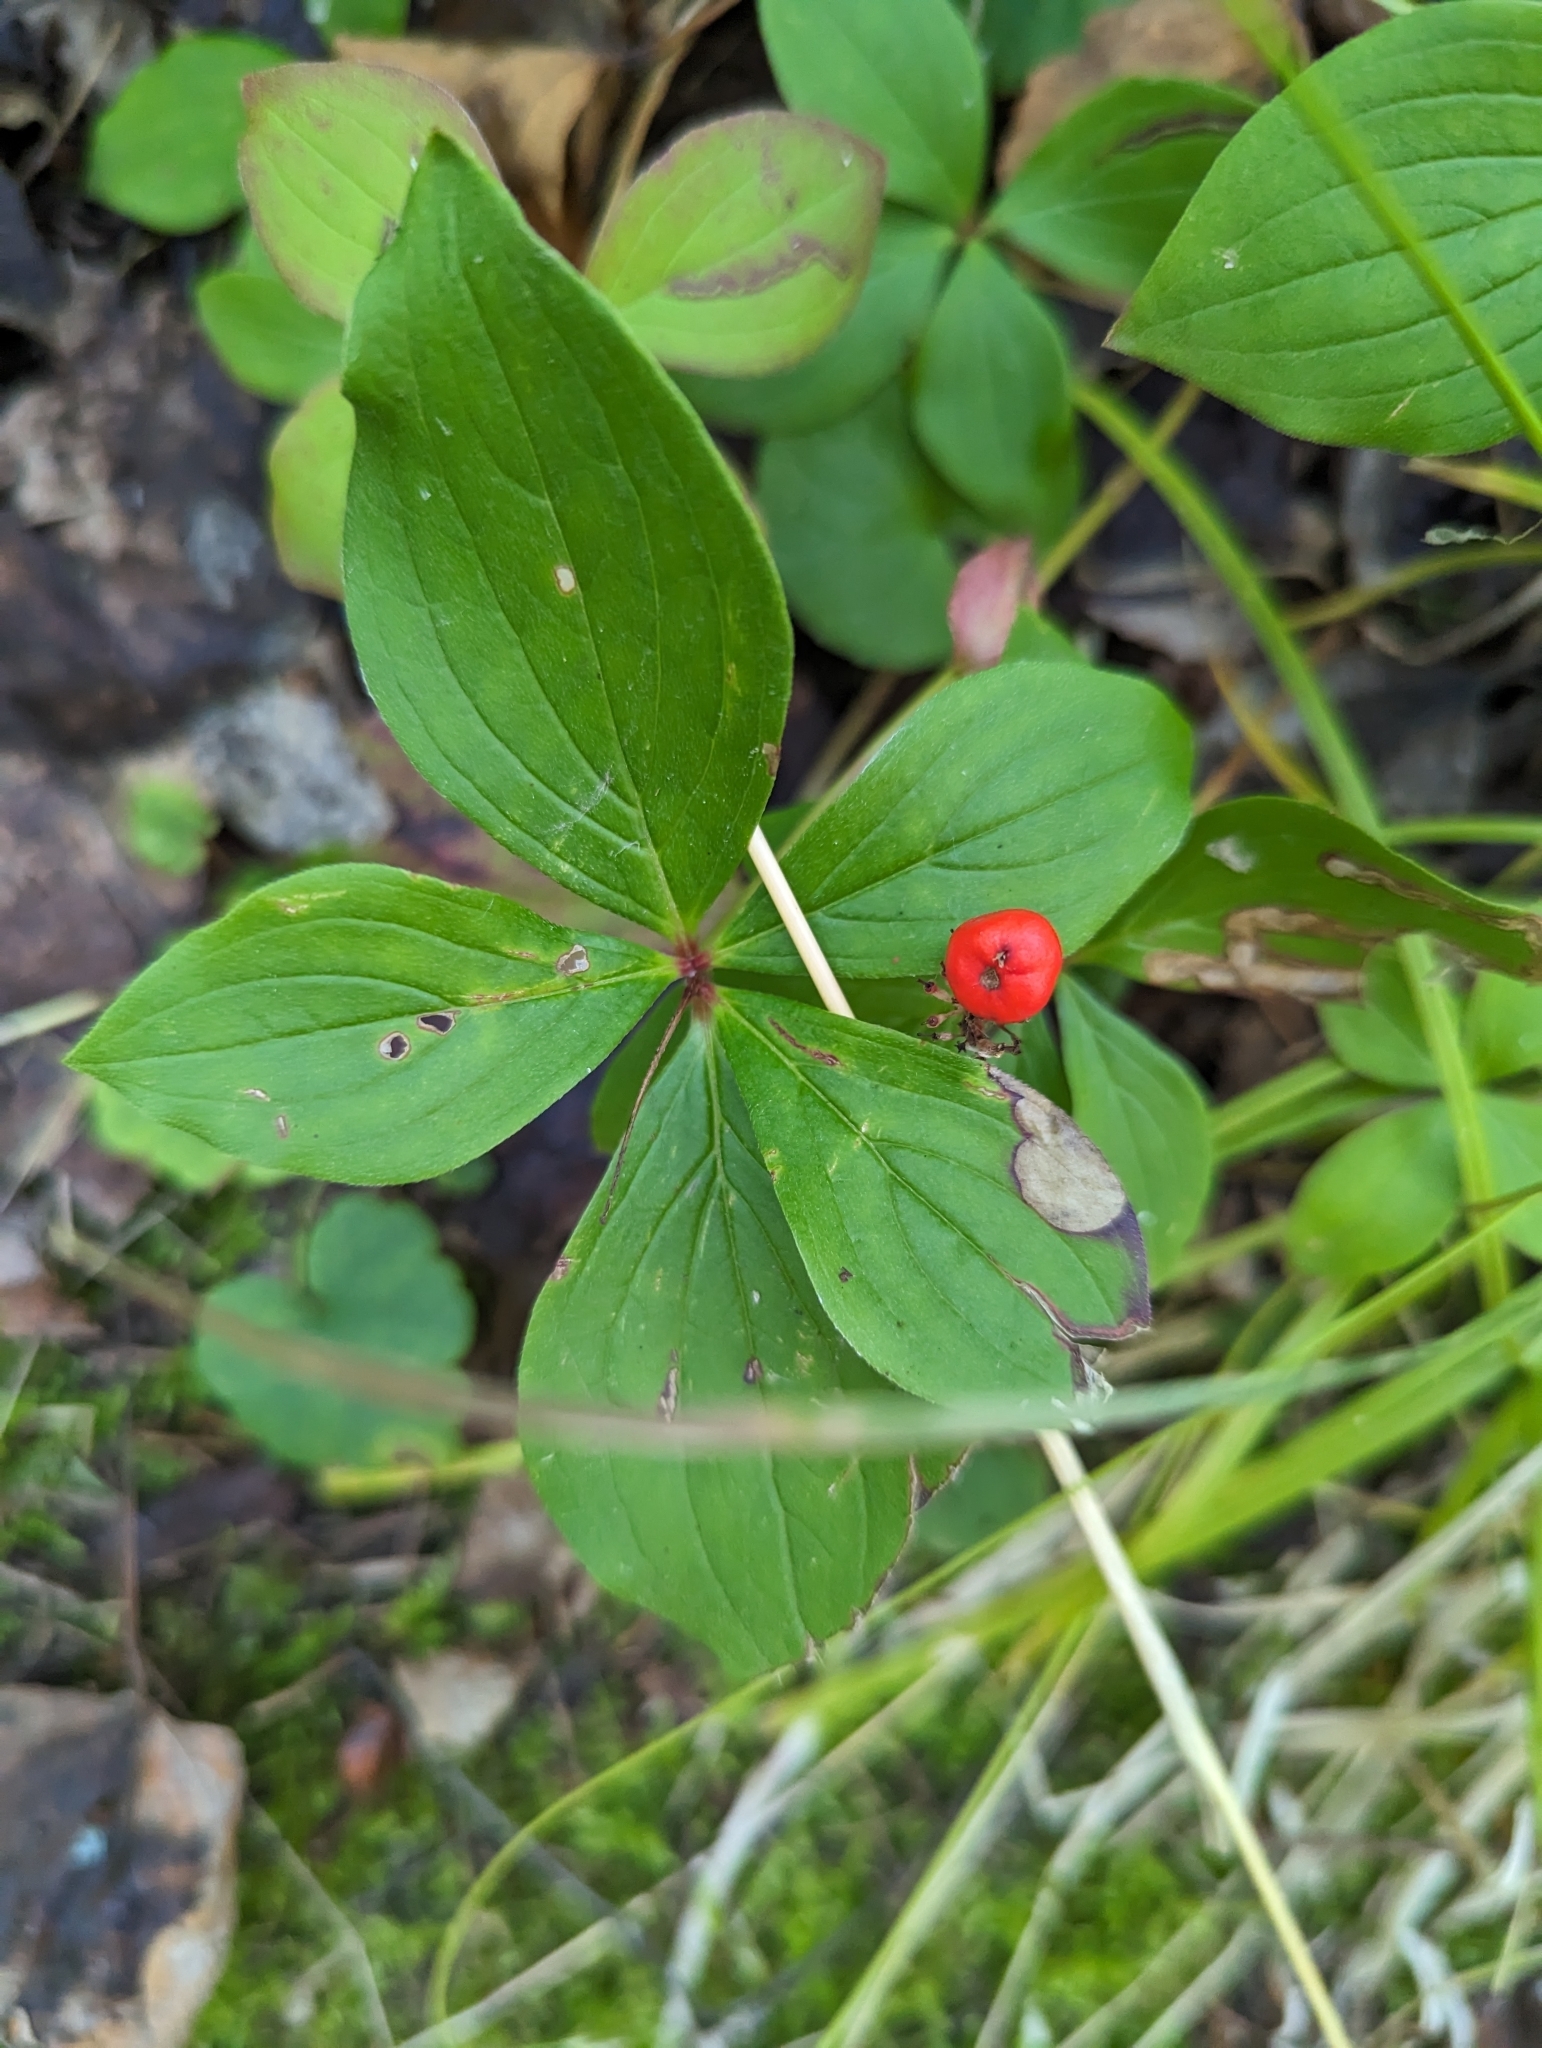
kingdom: Plantae
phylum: Tracheophyta
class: Magnoliopsida
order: Cornales
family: Cornaceae
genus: Cornus
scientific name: Cornus canadensis
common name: Creeping dogwood
